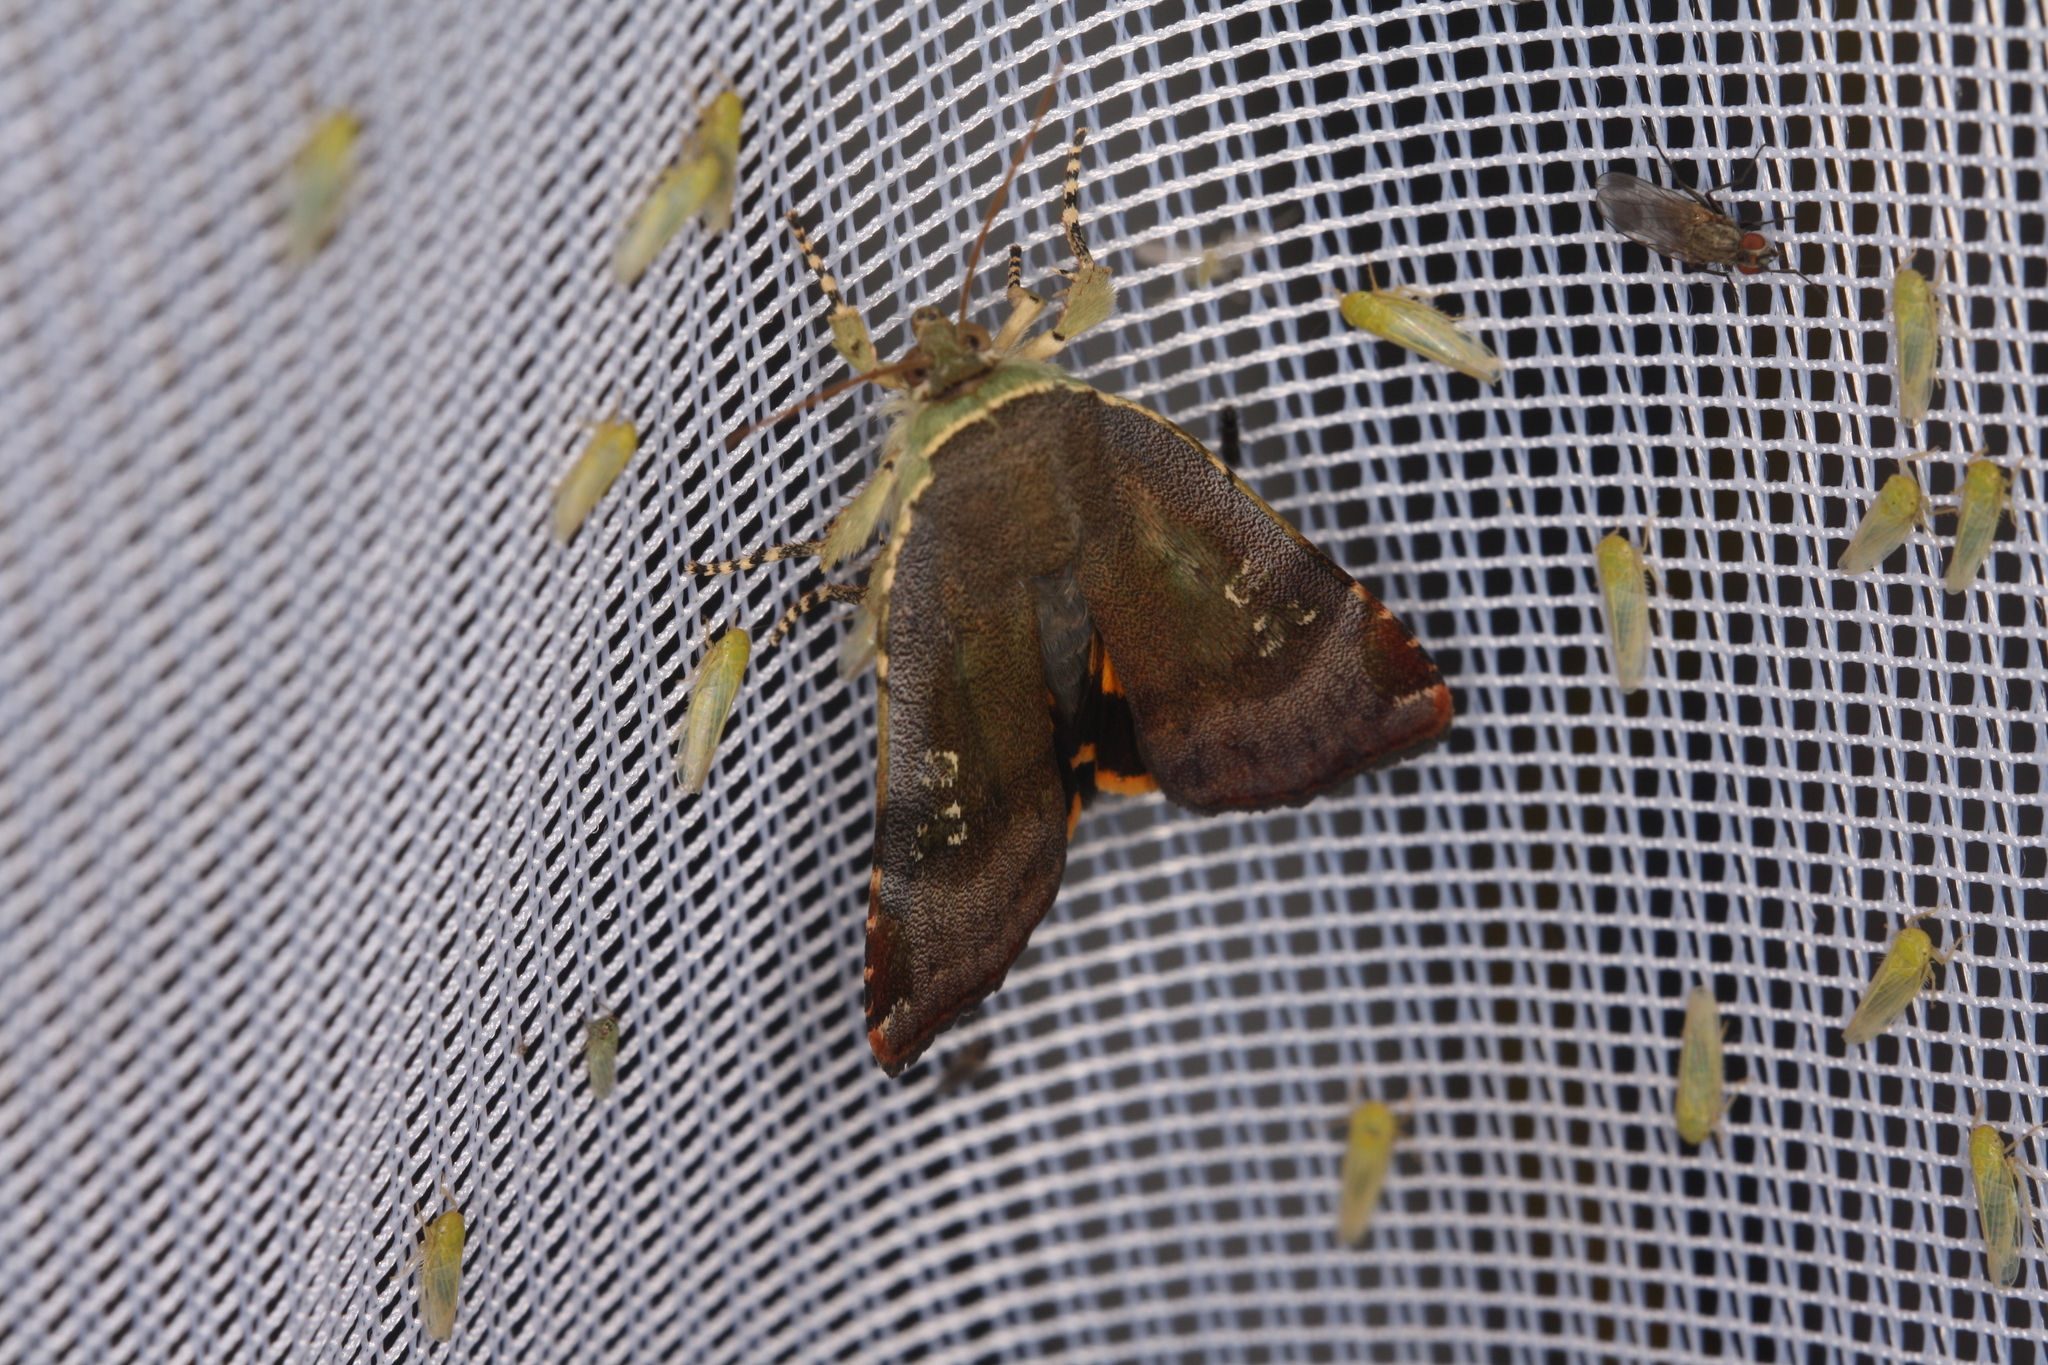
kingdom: Animalia
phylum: Arthropoda
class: Insecta
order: Lepidoptera
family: Noctuidae
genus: Noctua
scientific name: Noctua
